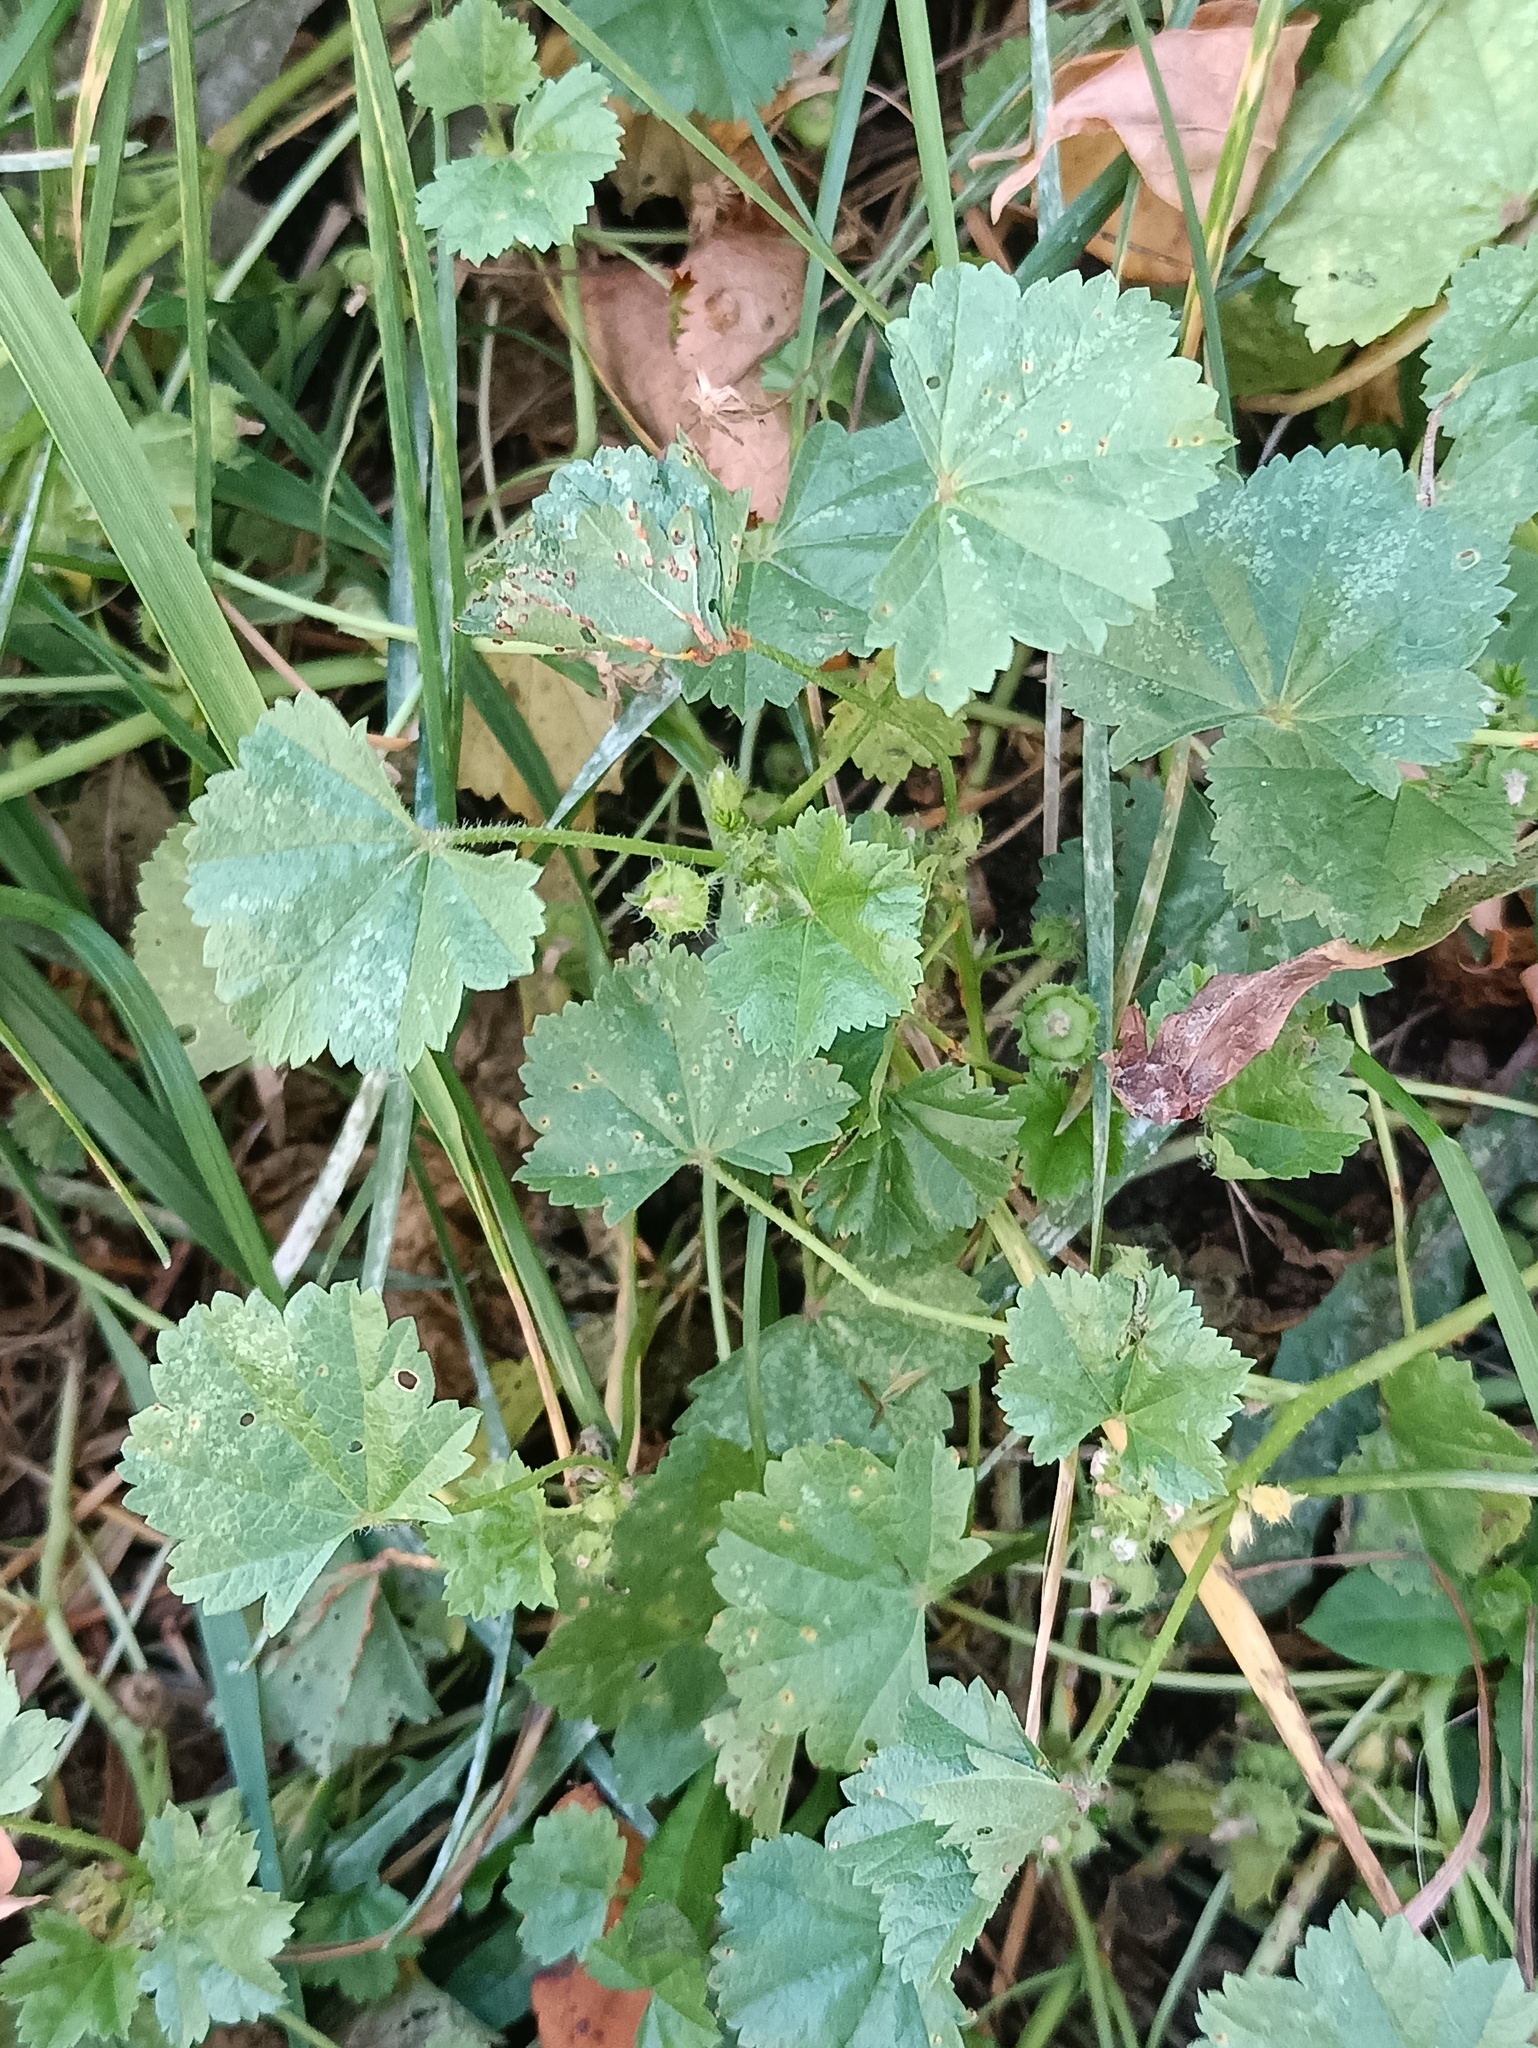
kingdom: Plantae
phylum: Tracheophyta
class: Magnoliopsida
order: Malvales
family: Malvaceae
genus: Malva
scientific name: Malva pusilla
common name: Small mallow
